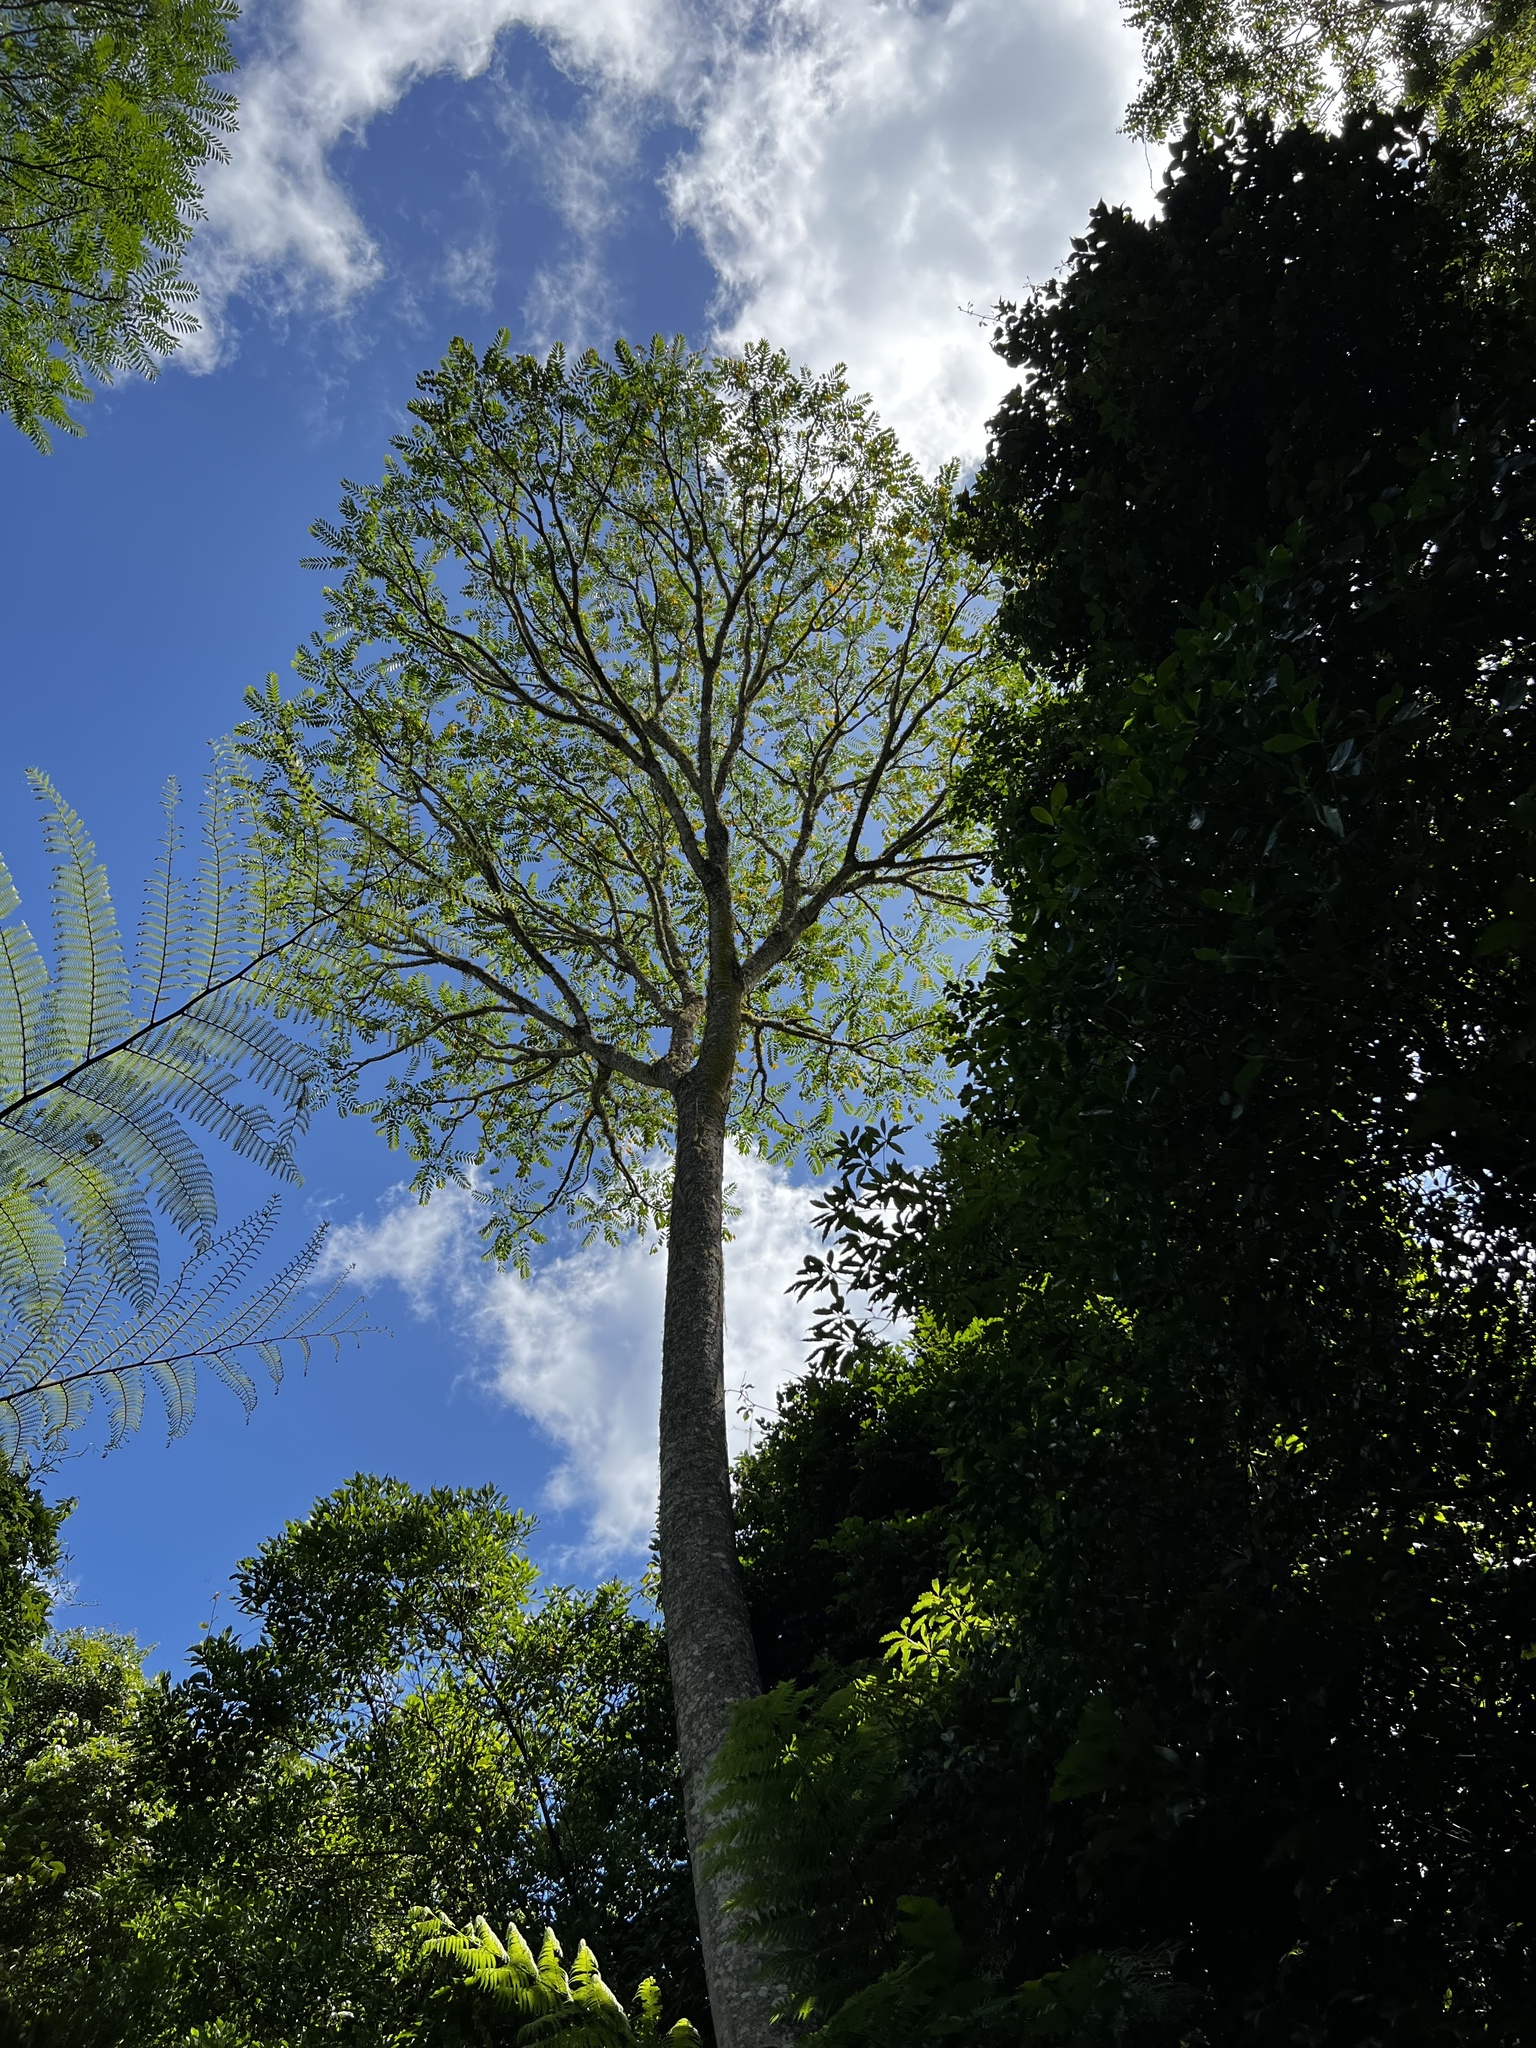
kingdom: Plantae
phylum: Tracheophyta
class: Magnoliopsida
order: Apiales
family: Araliaceae
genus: Polyscias
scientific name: Polyscias murrayi
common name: Pencil cedar
